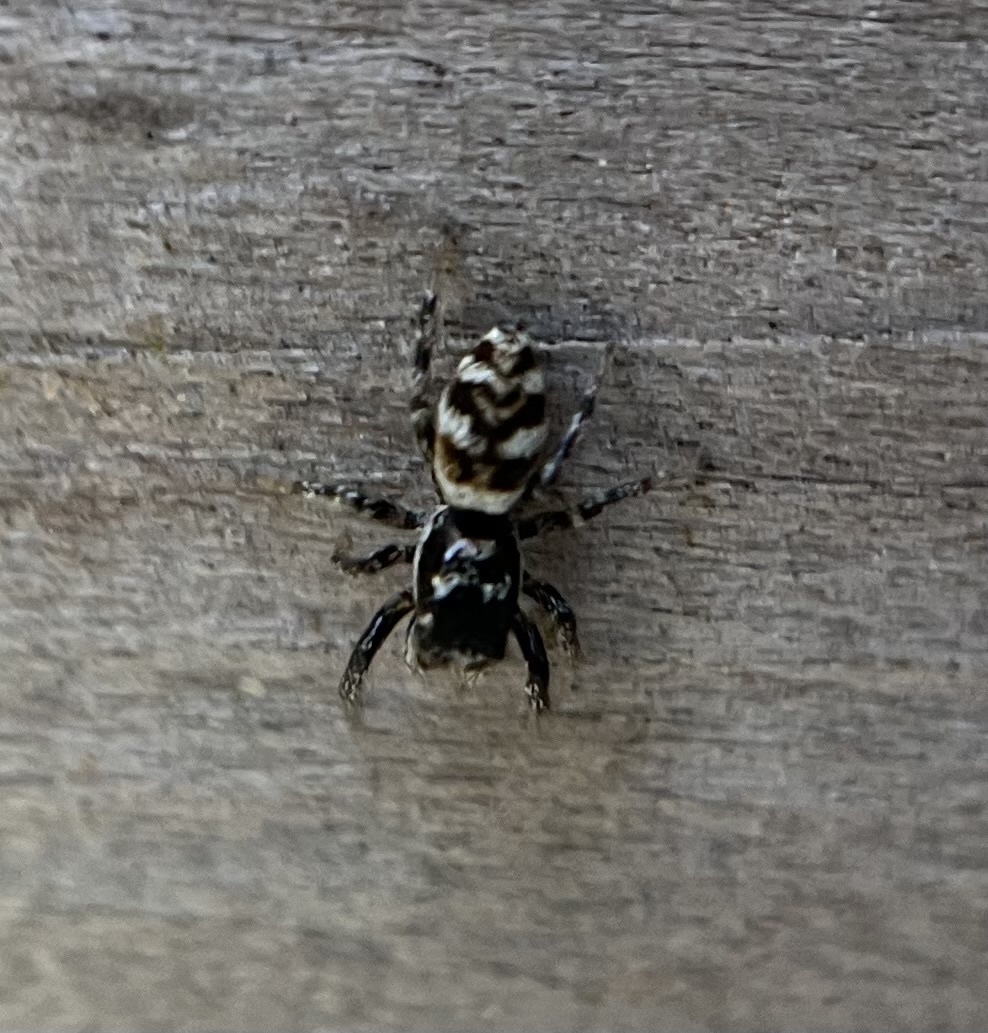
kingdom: Animalia
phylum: Arthropoda
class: Arachnida
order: Araneae
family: Salticidae
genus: Salticus
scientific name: Salticus scenicus
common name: Zebra jumper
